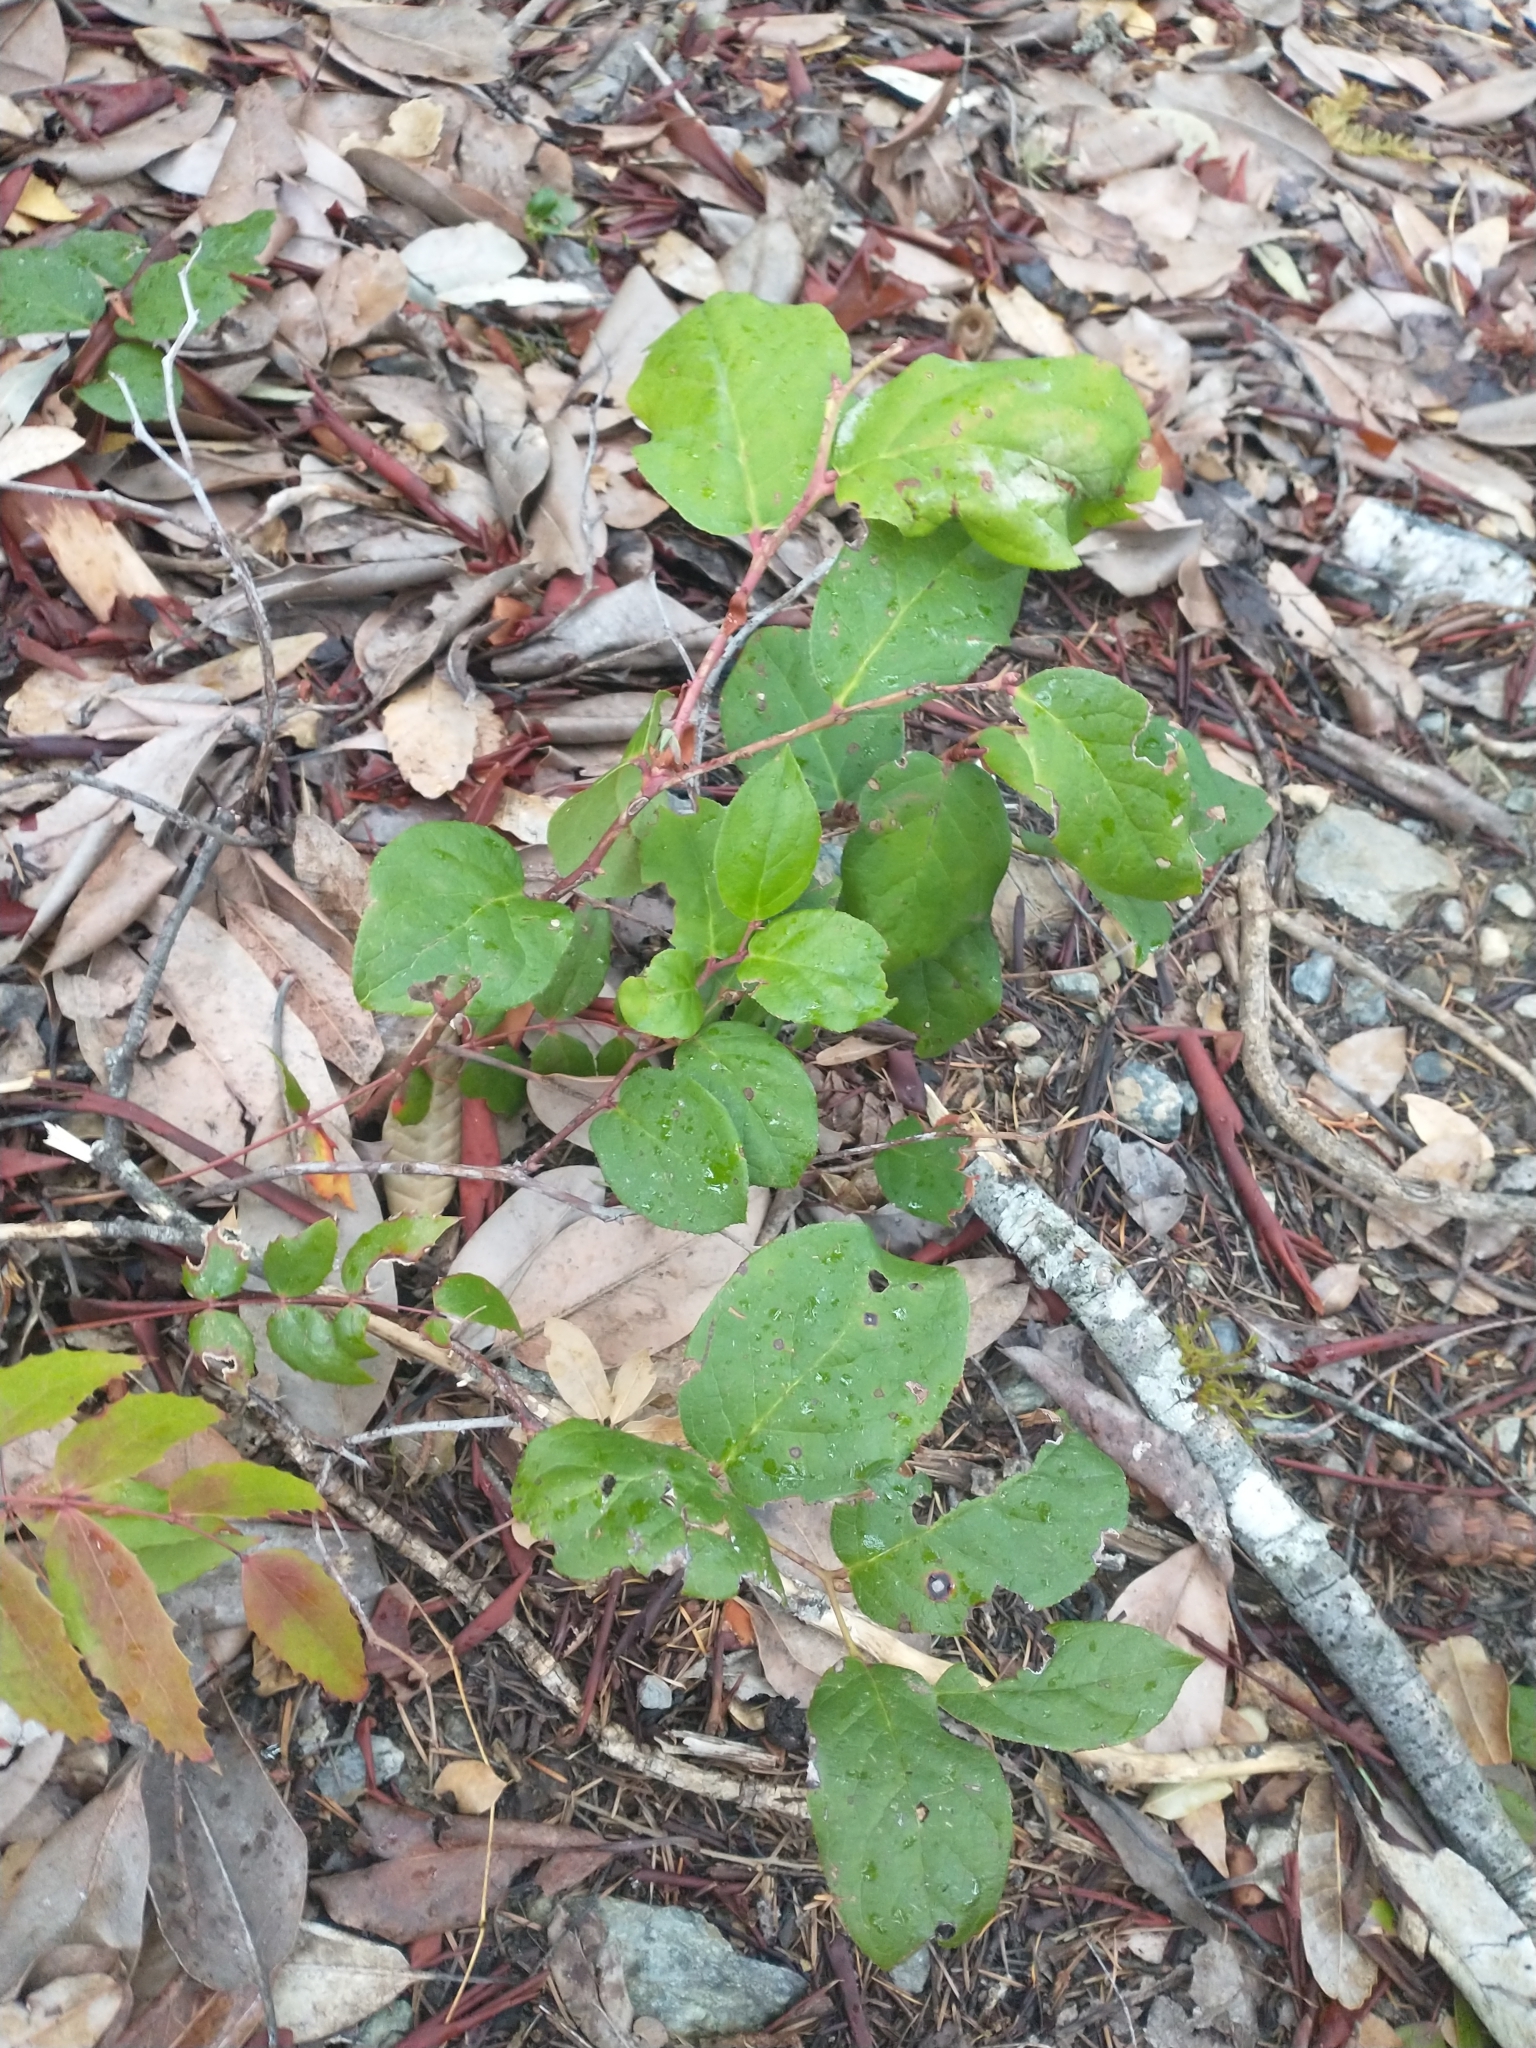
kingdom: Plantae
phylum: Tracheophyta
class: Magnoliopsida
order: Ericales
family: Ericaceae
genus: Gaultheria
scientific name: Gaultheria shallon
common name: Shallon
